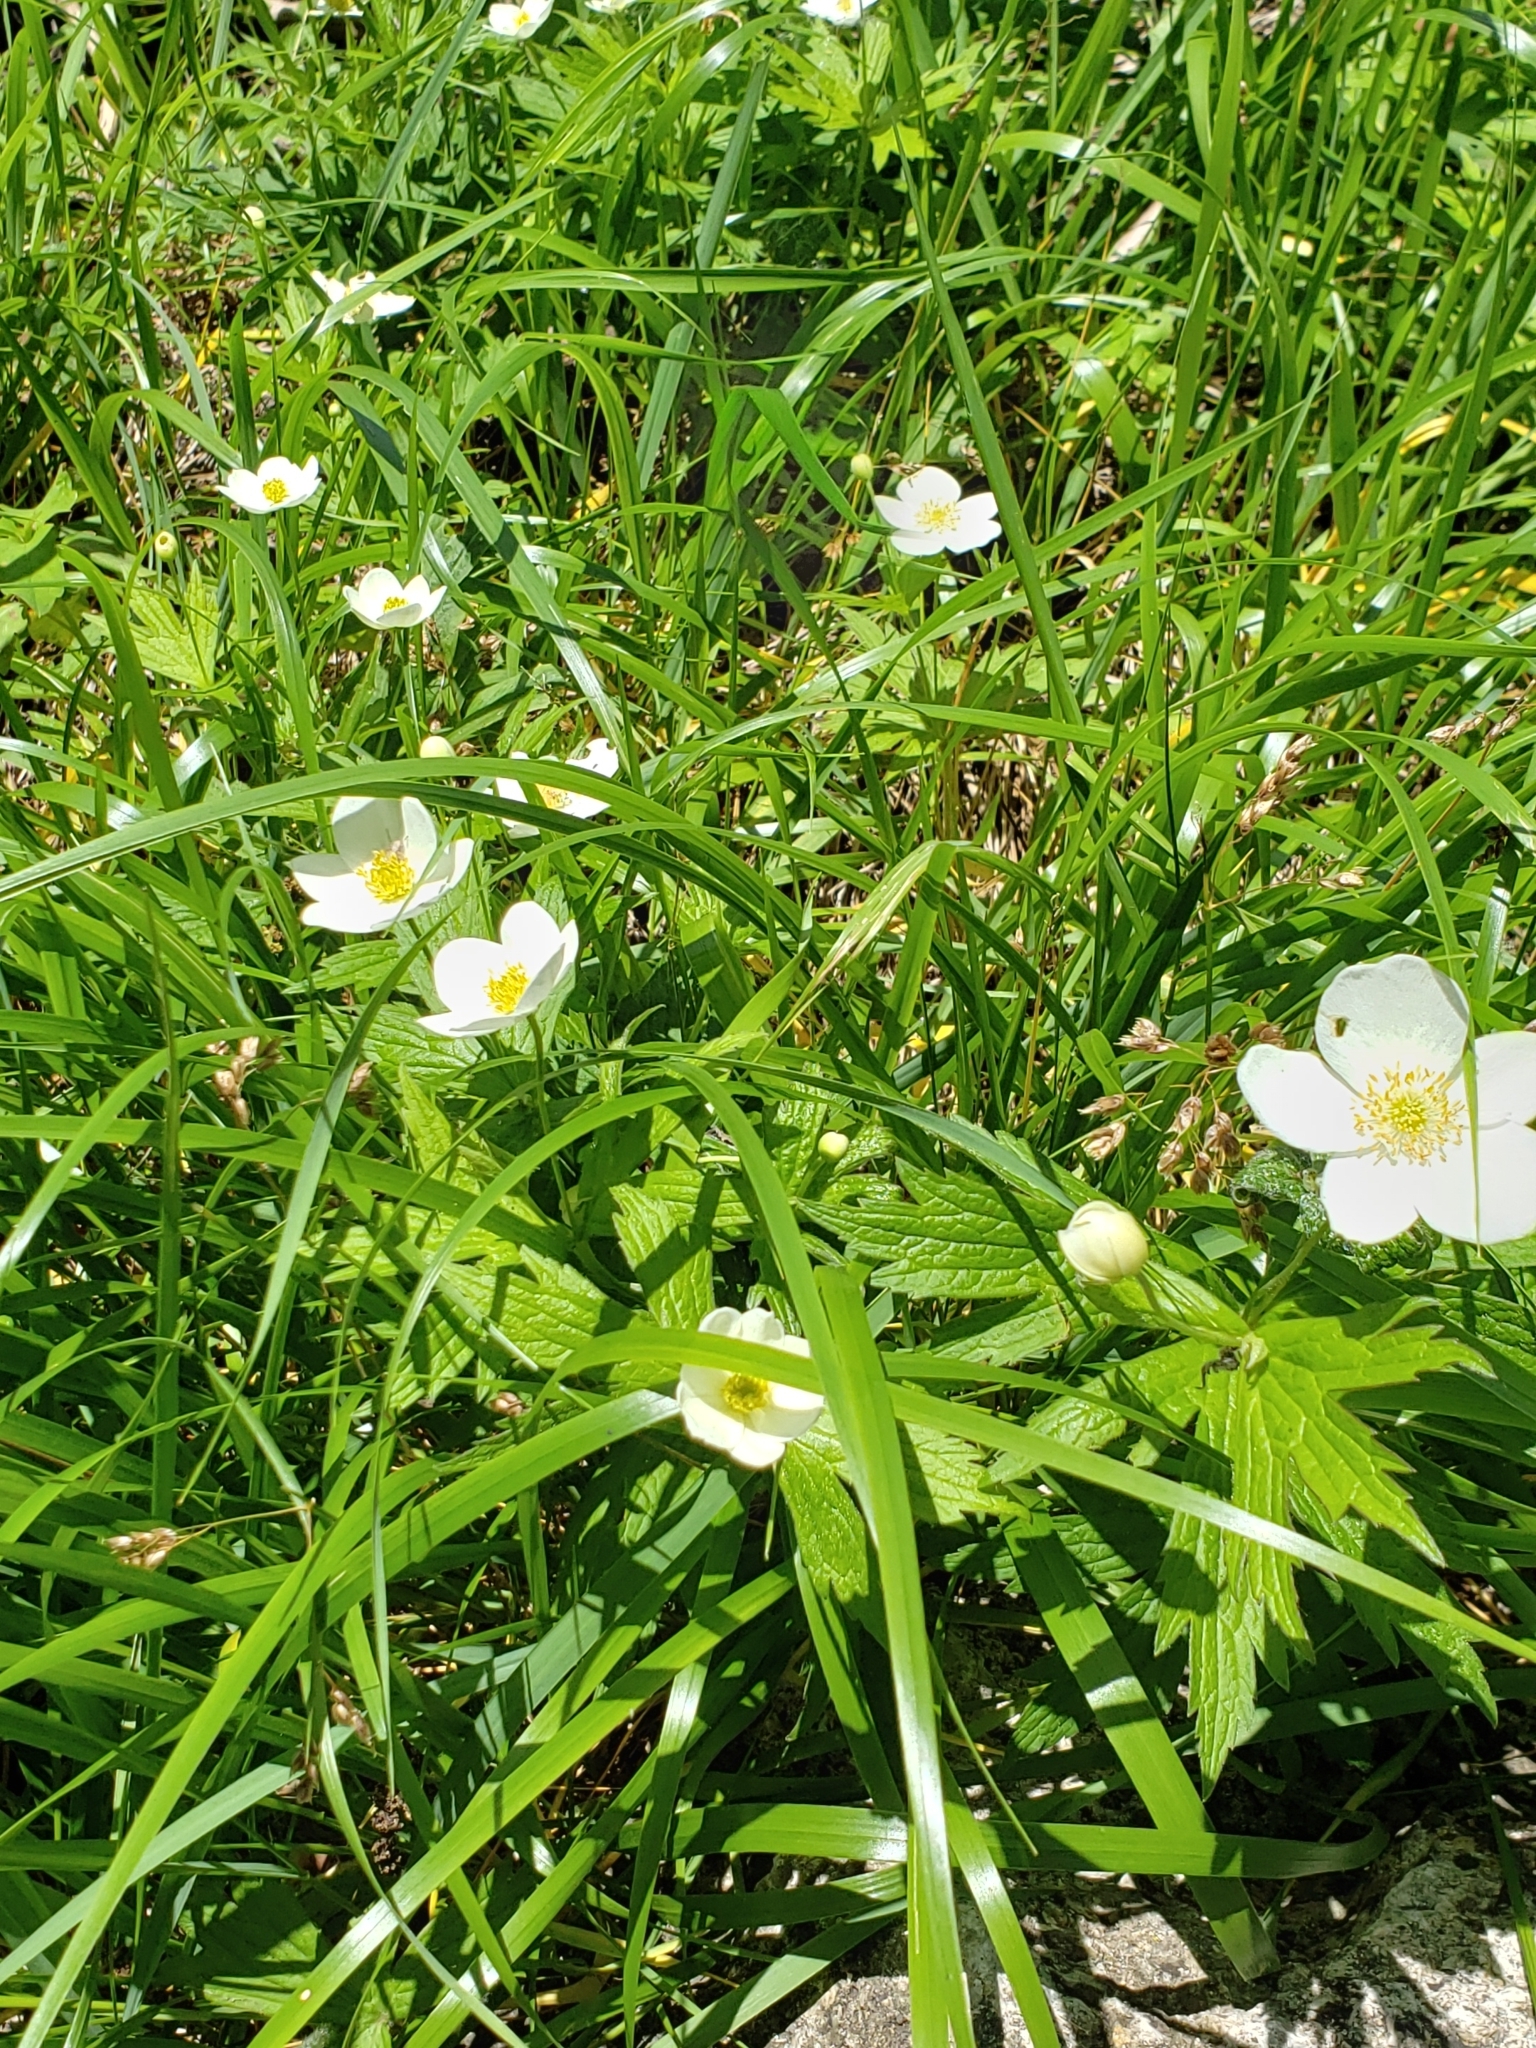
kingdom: Plantae
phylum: Tracheophyta
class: Magnoliopsida
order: Ranunculales
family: Ranunculaceae
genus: Anemonastrum
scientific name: Anemonastrum canadense
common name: Canada anemone
